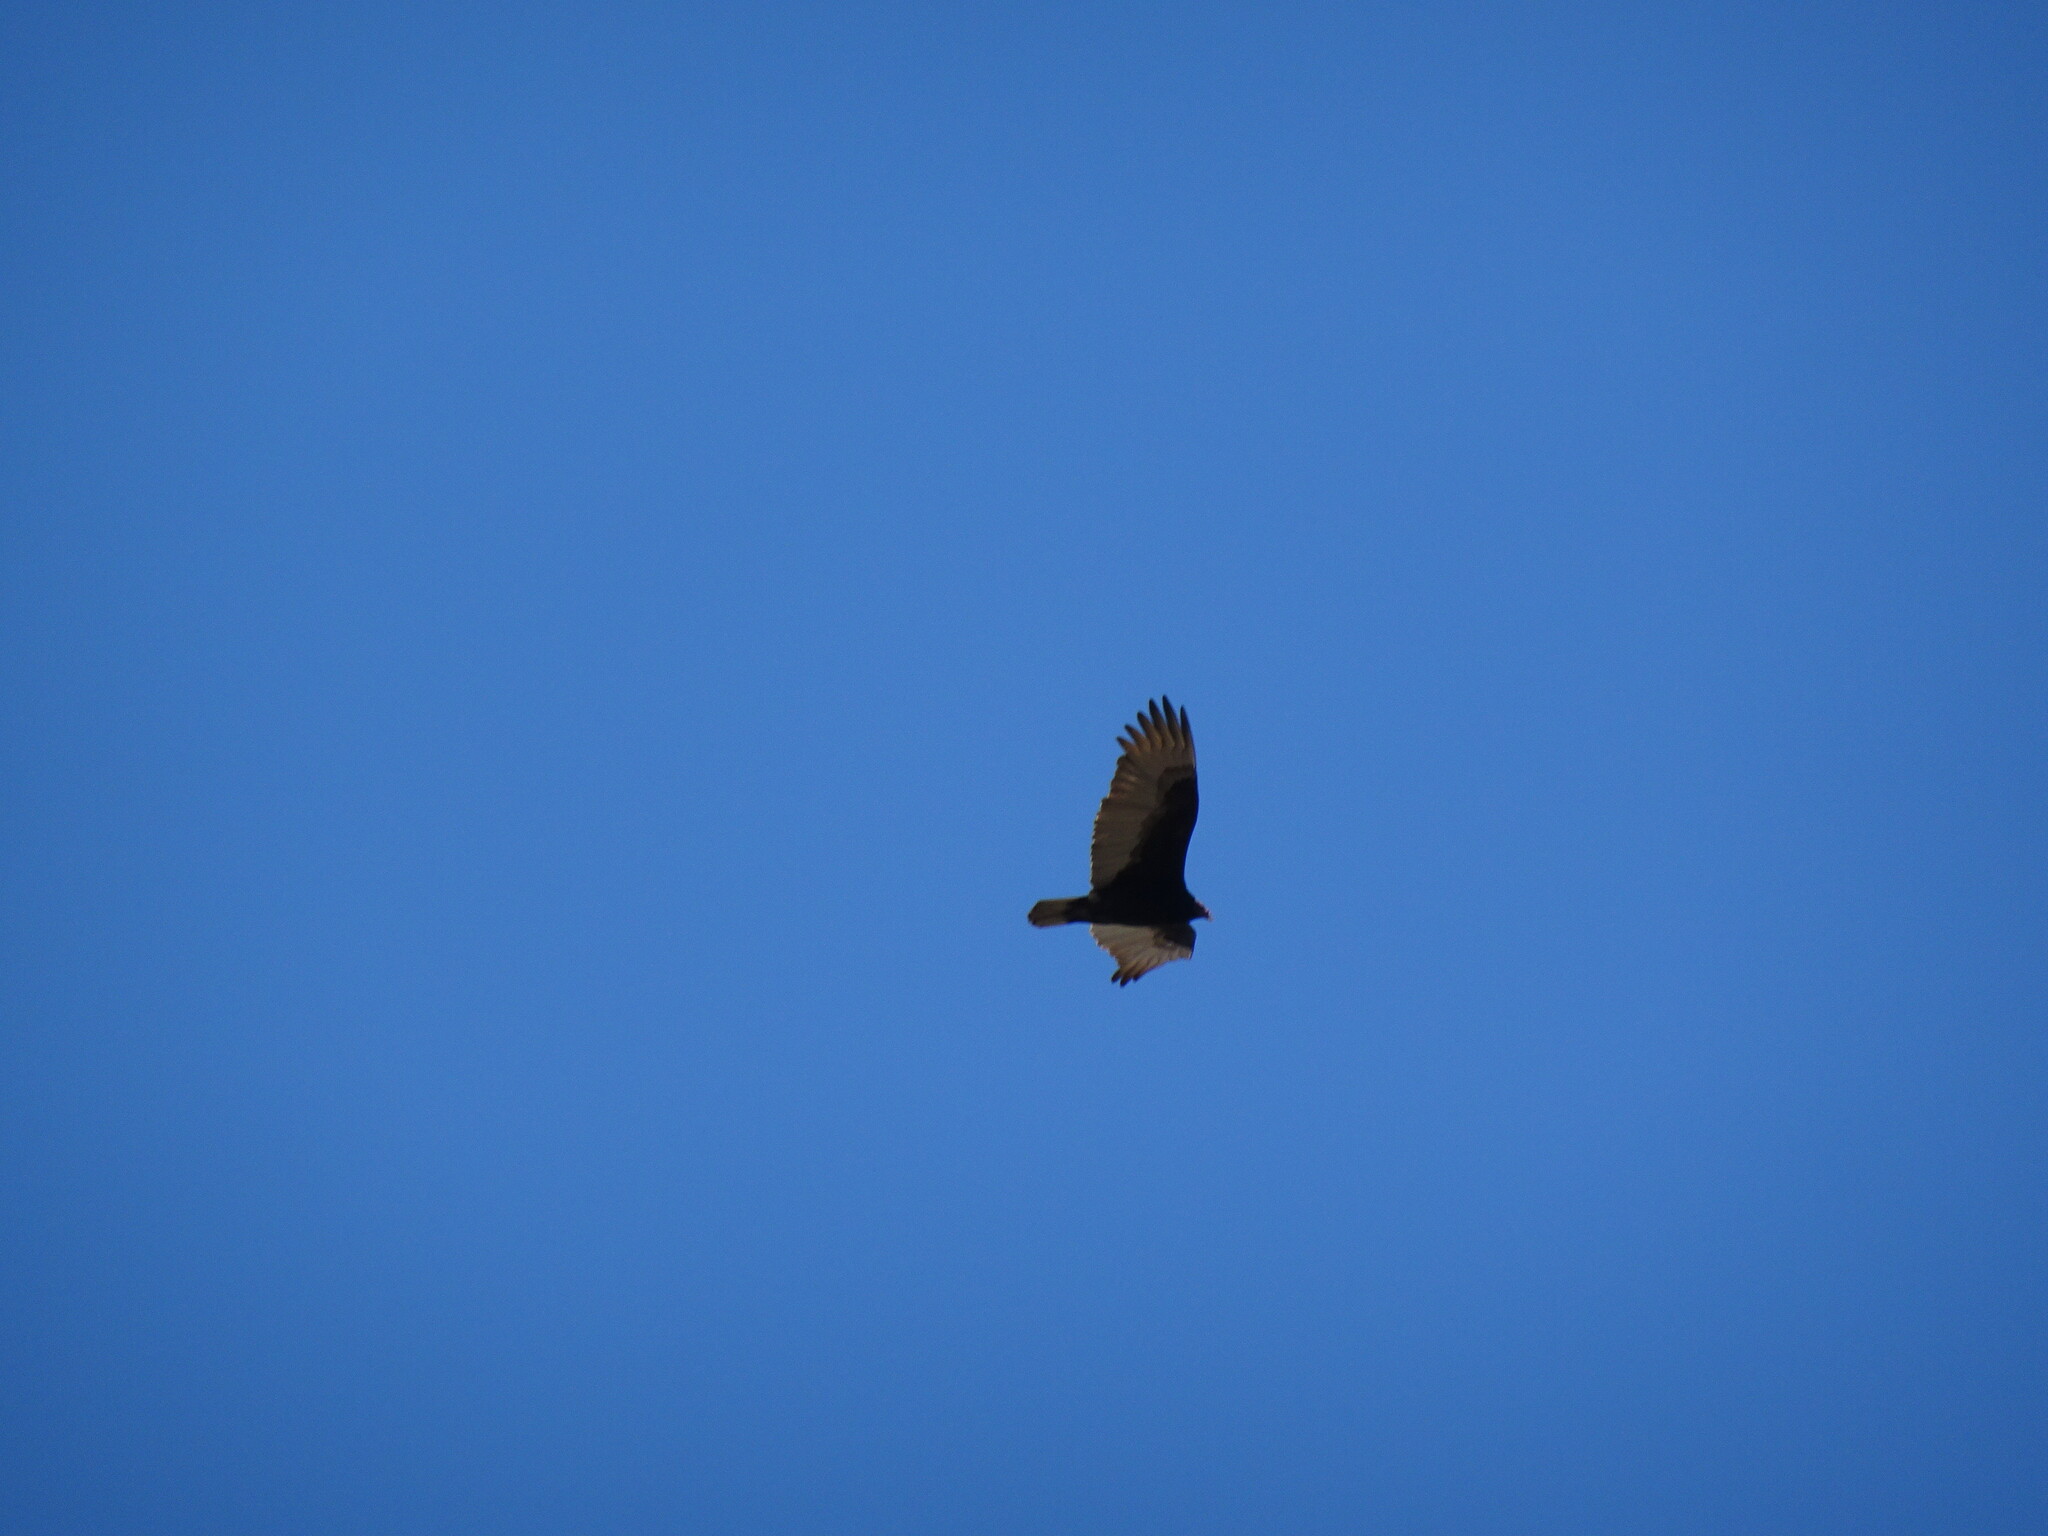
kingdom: Animalia
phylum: Chordata
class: Aves
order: Accipitriformes
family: Cathartidae
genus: Cathartes
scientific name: Cathartes aura
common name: Turkey vulture
